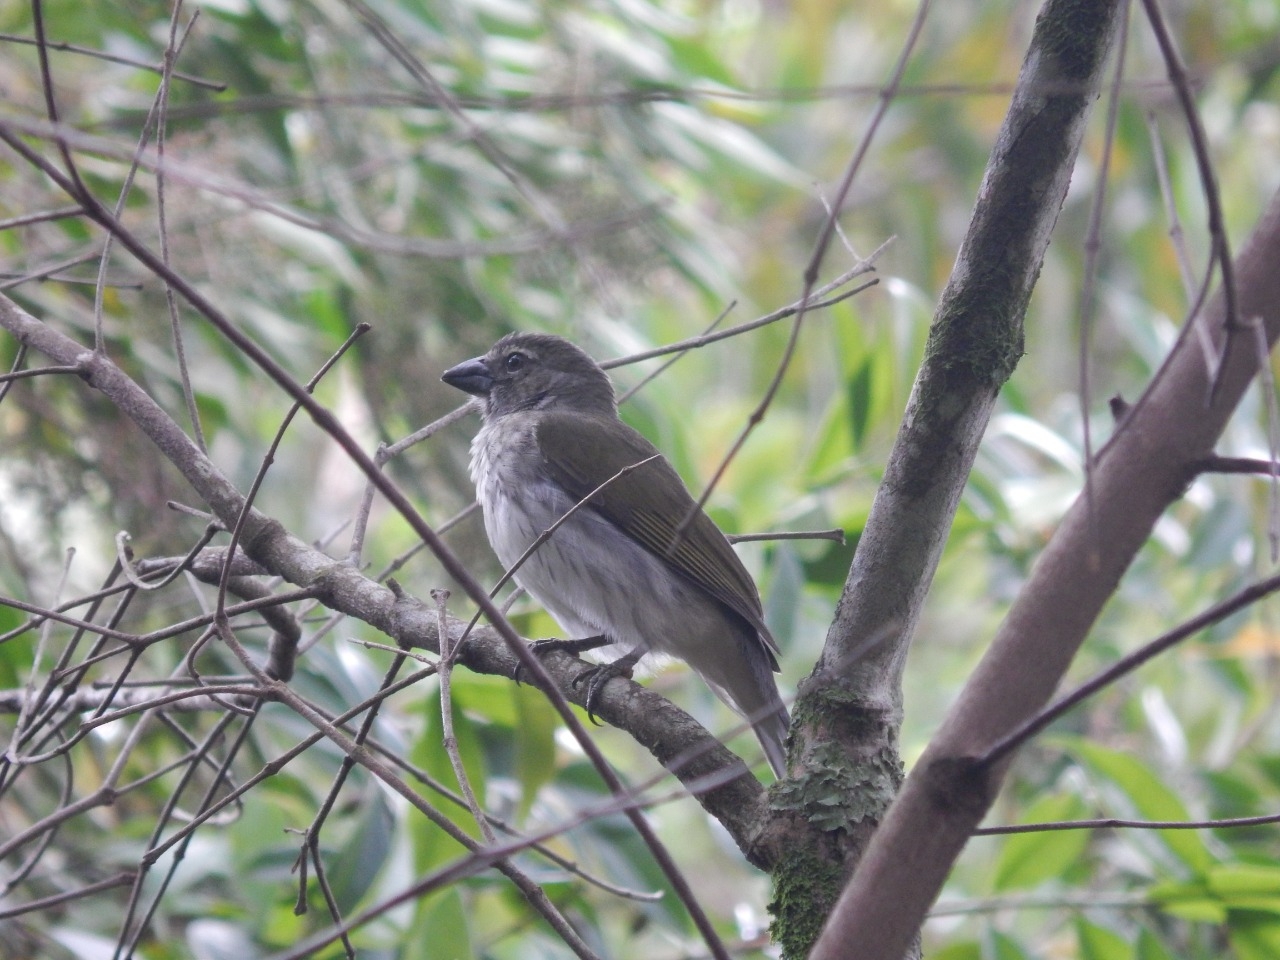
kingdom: Animalia
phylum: Chordata
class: Aves
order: Passeriformes
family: Thraupidae
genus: Saltator
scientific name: Saltator striatipectus
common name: Streaked saltator
